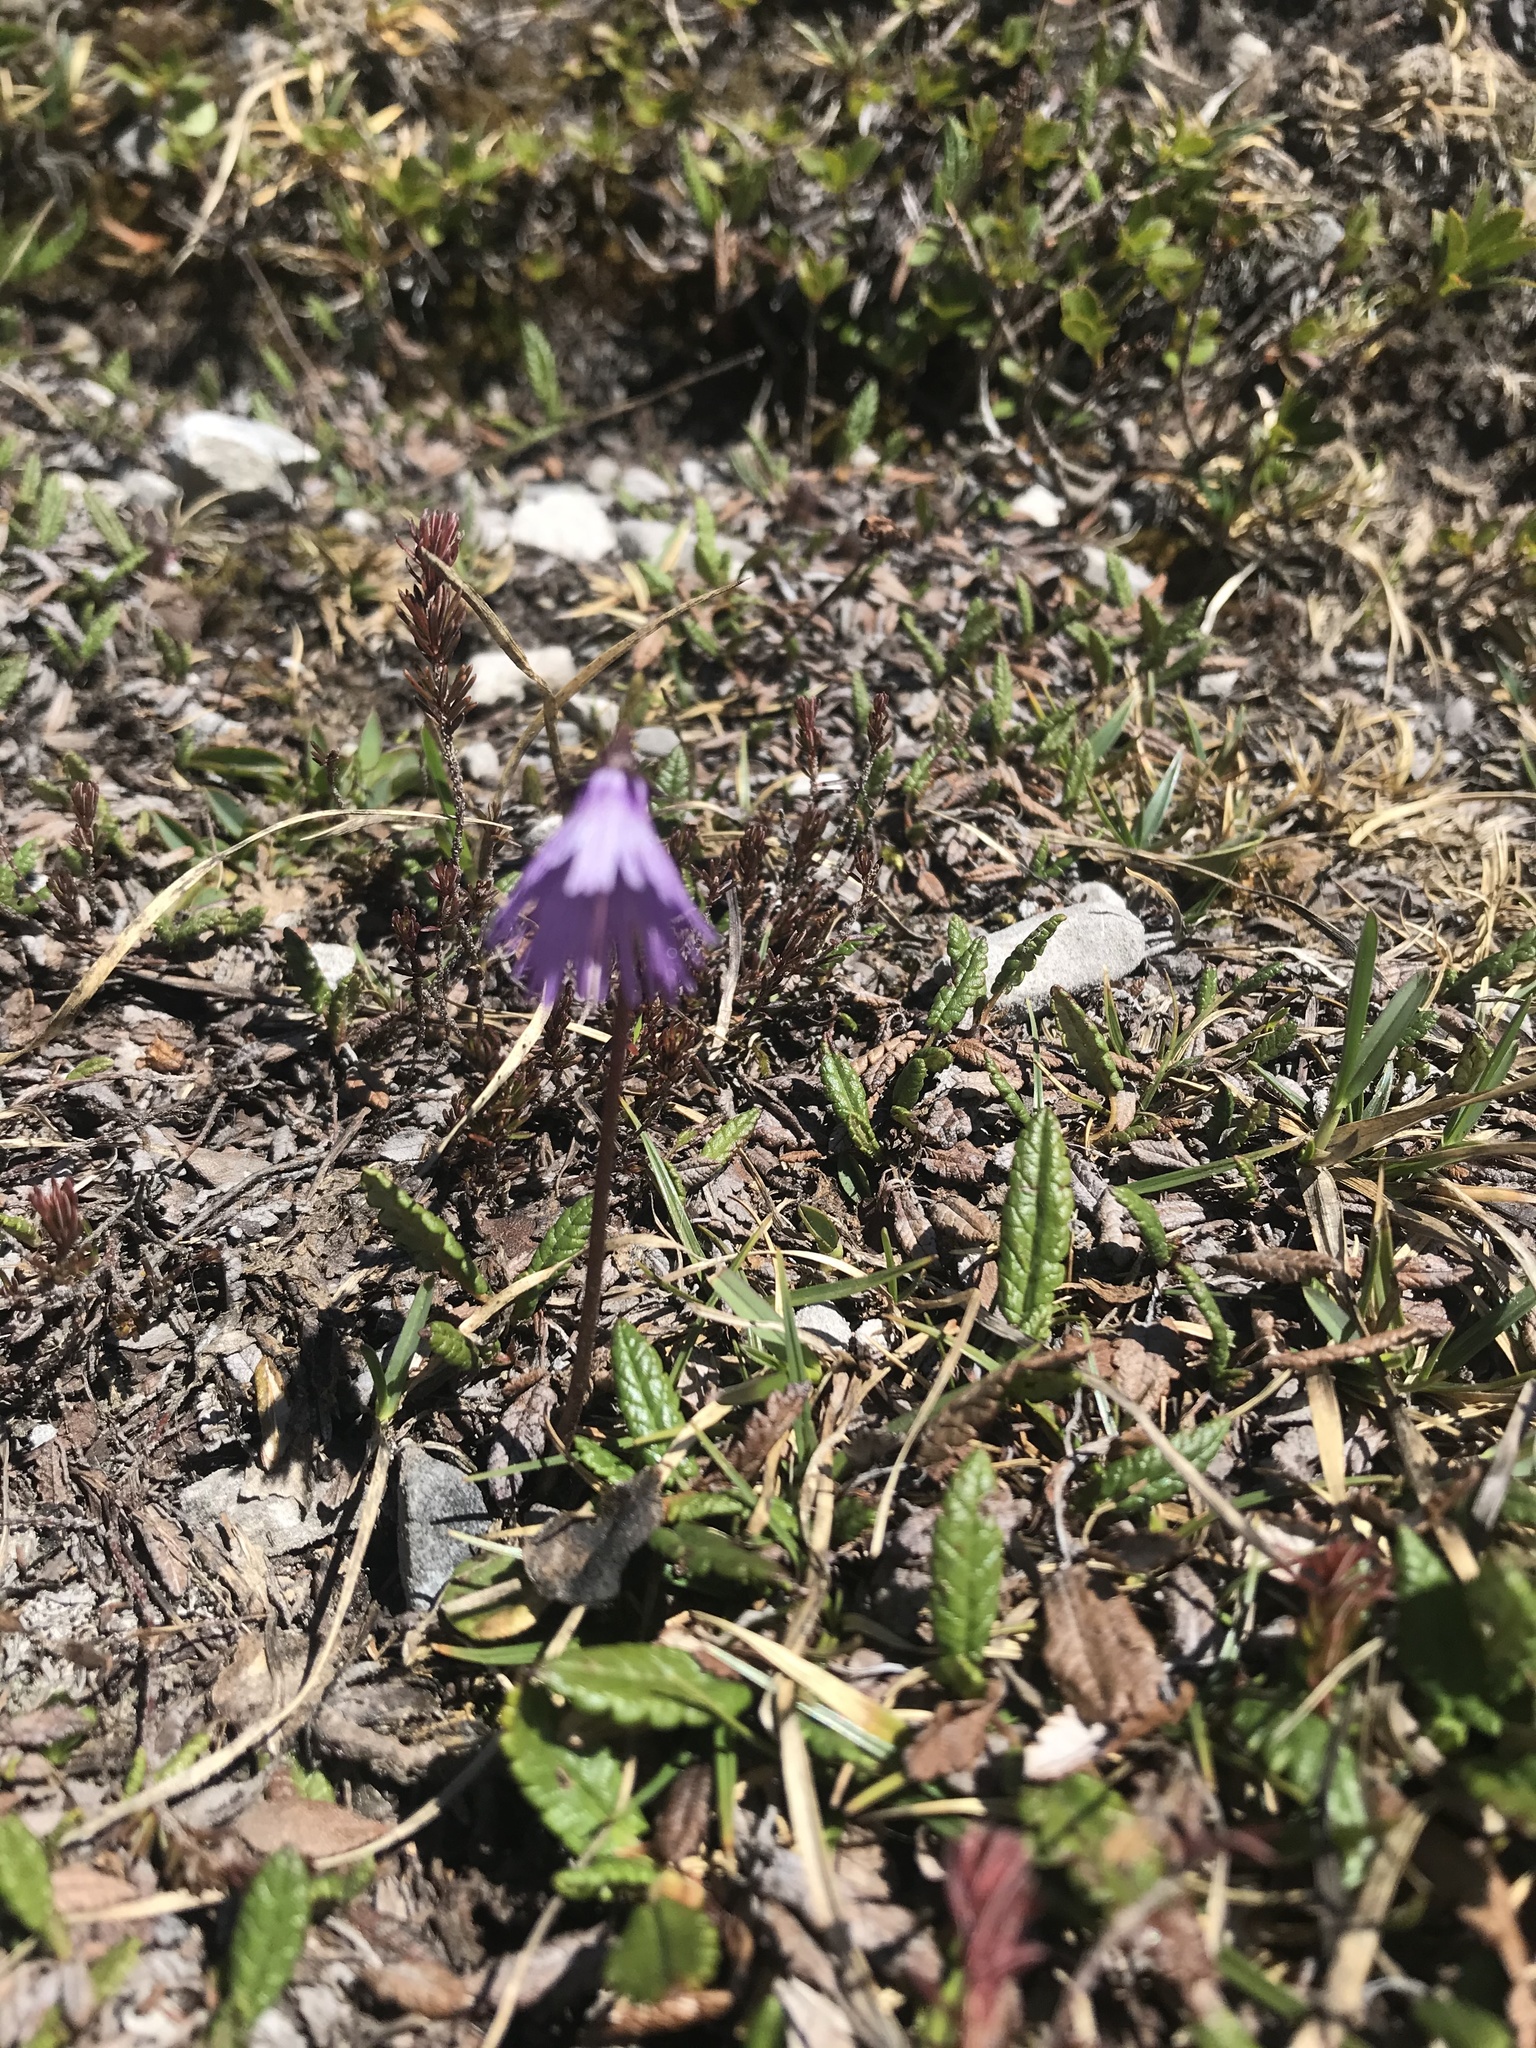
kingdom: Plantae
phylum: Tracheophyta
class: Magnoliopsida
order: Ericales
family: Primulaceae
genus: Soldanella
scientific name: Soldanella alpina
